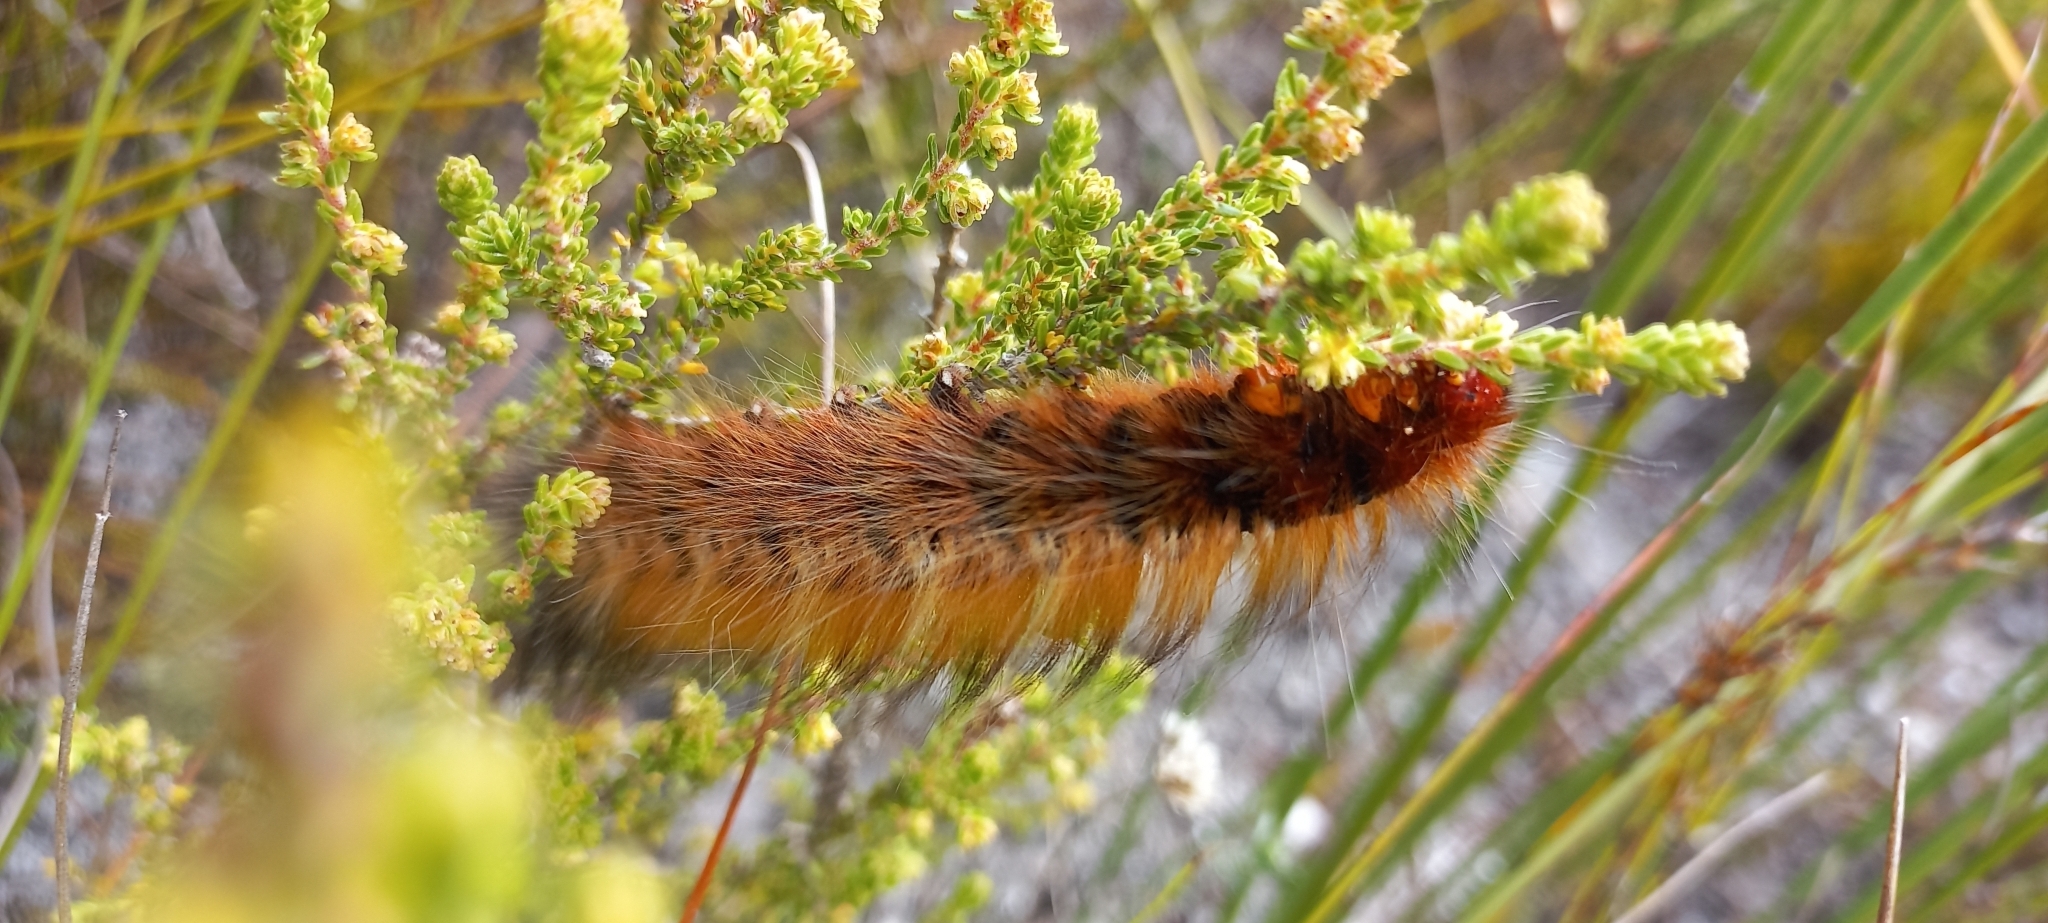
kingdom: Animalia
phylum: Arthropoda
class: Insecta
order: Lepidoptera
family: Lasiocampidae
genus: Mesocelis
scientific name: Mesocelis monticola
